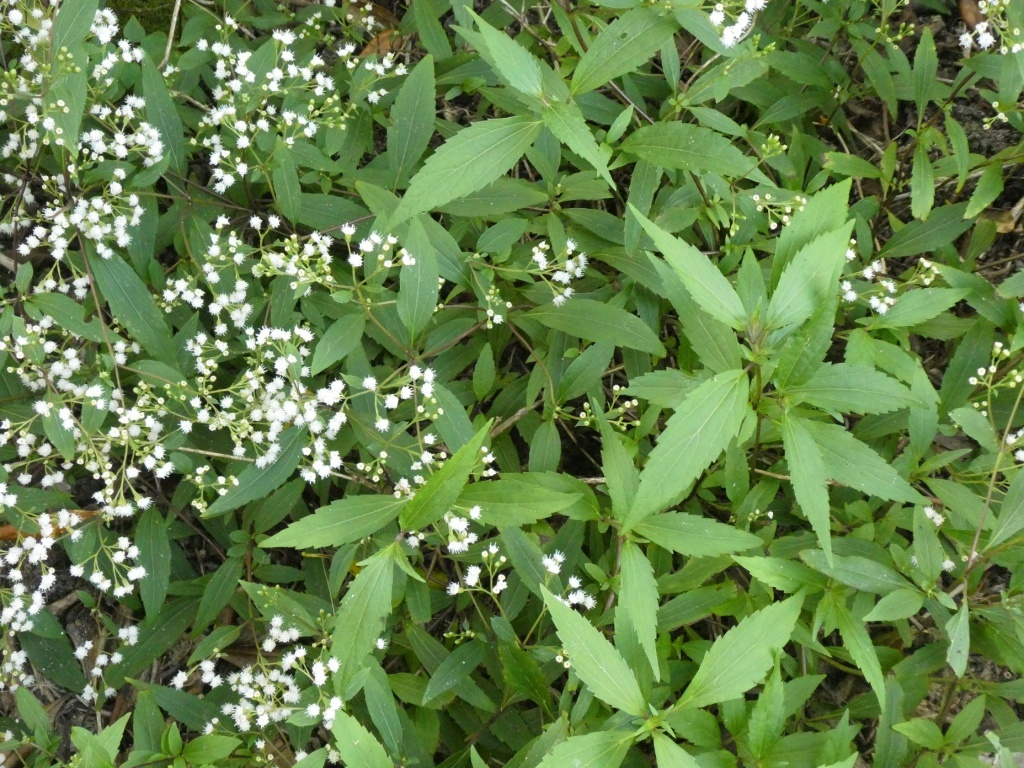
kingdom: Plantae
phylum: Tracheophyta
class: Magnoliopsida
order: Asterales
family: Asteraceae
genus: Ageratina
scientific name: Ageratina riparia
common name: Creeping croftonweed
